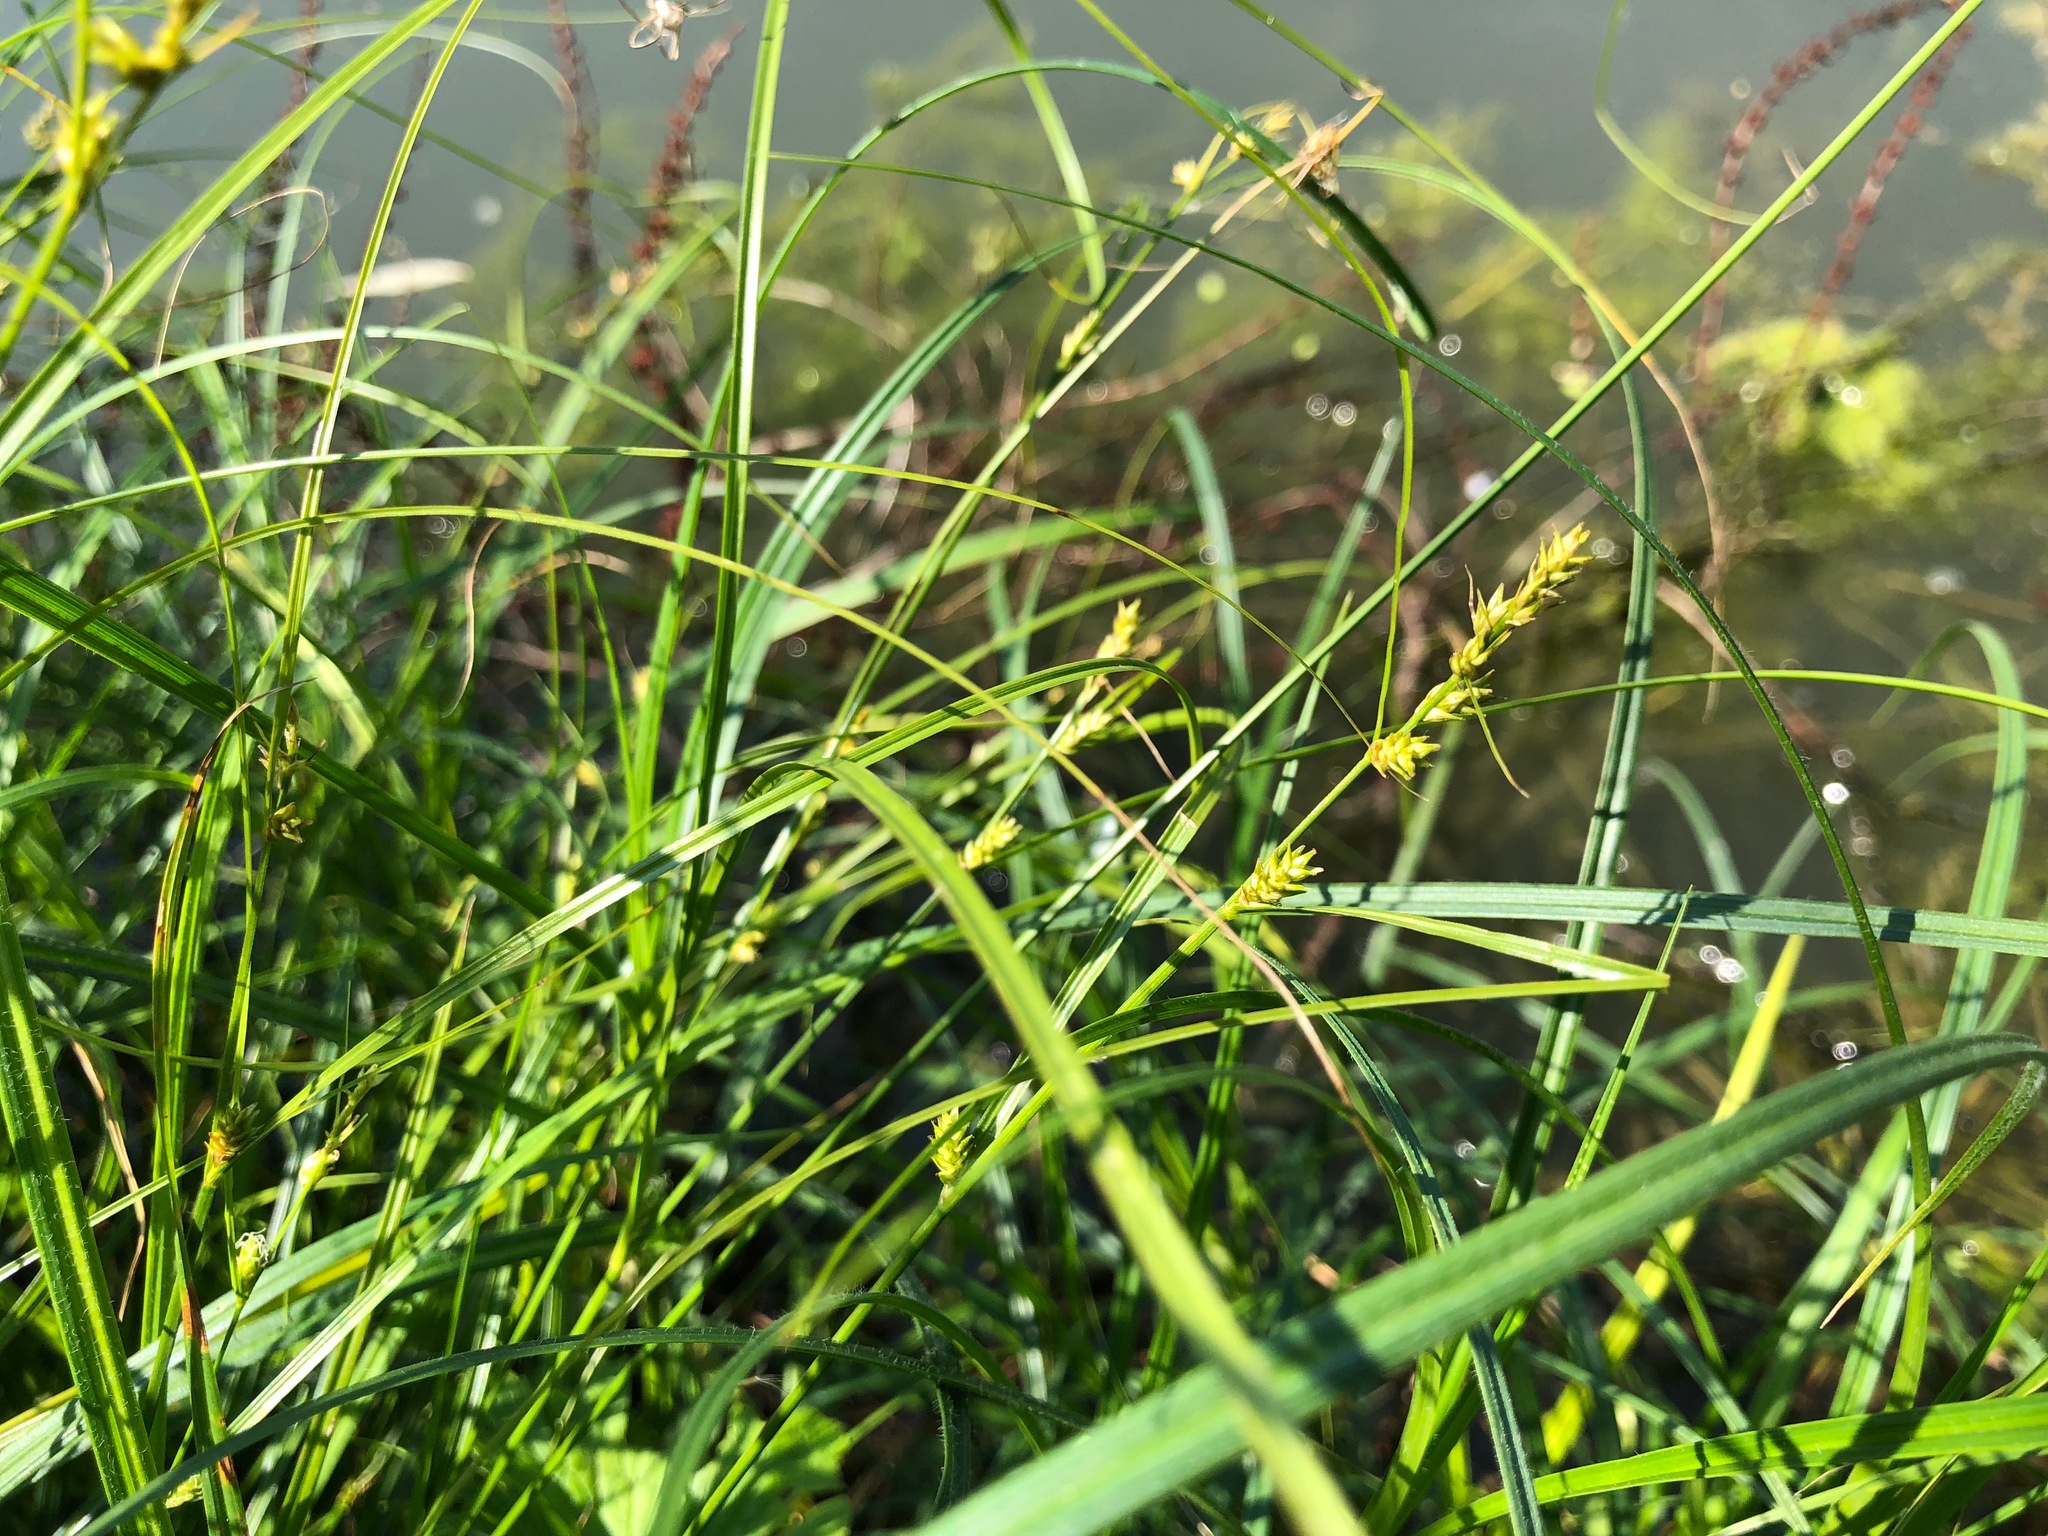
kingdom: Plantae
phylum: Tracheophyta
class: Liliopsida
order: Poales
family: Cyperaceae
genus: Carex
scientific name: Carex remota
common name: Remote sedge
